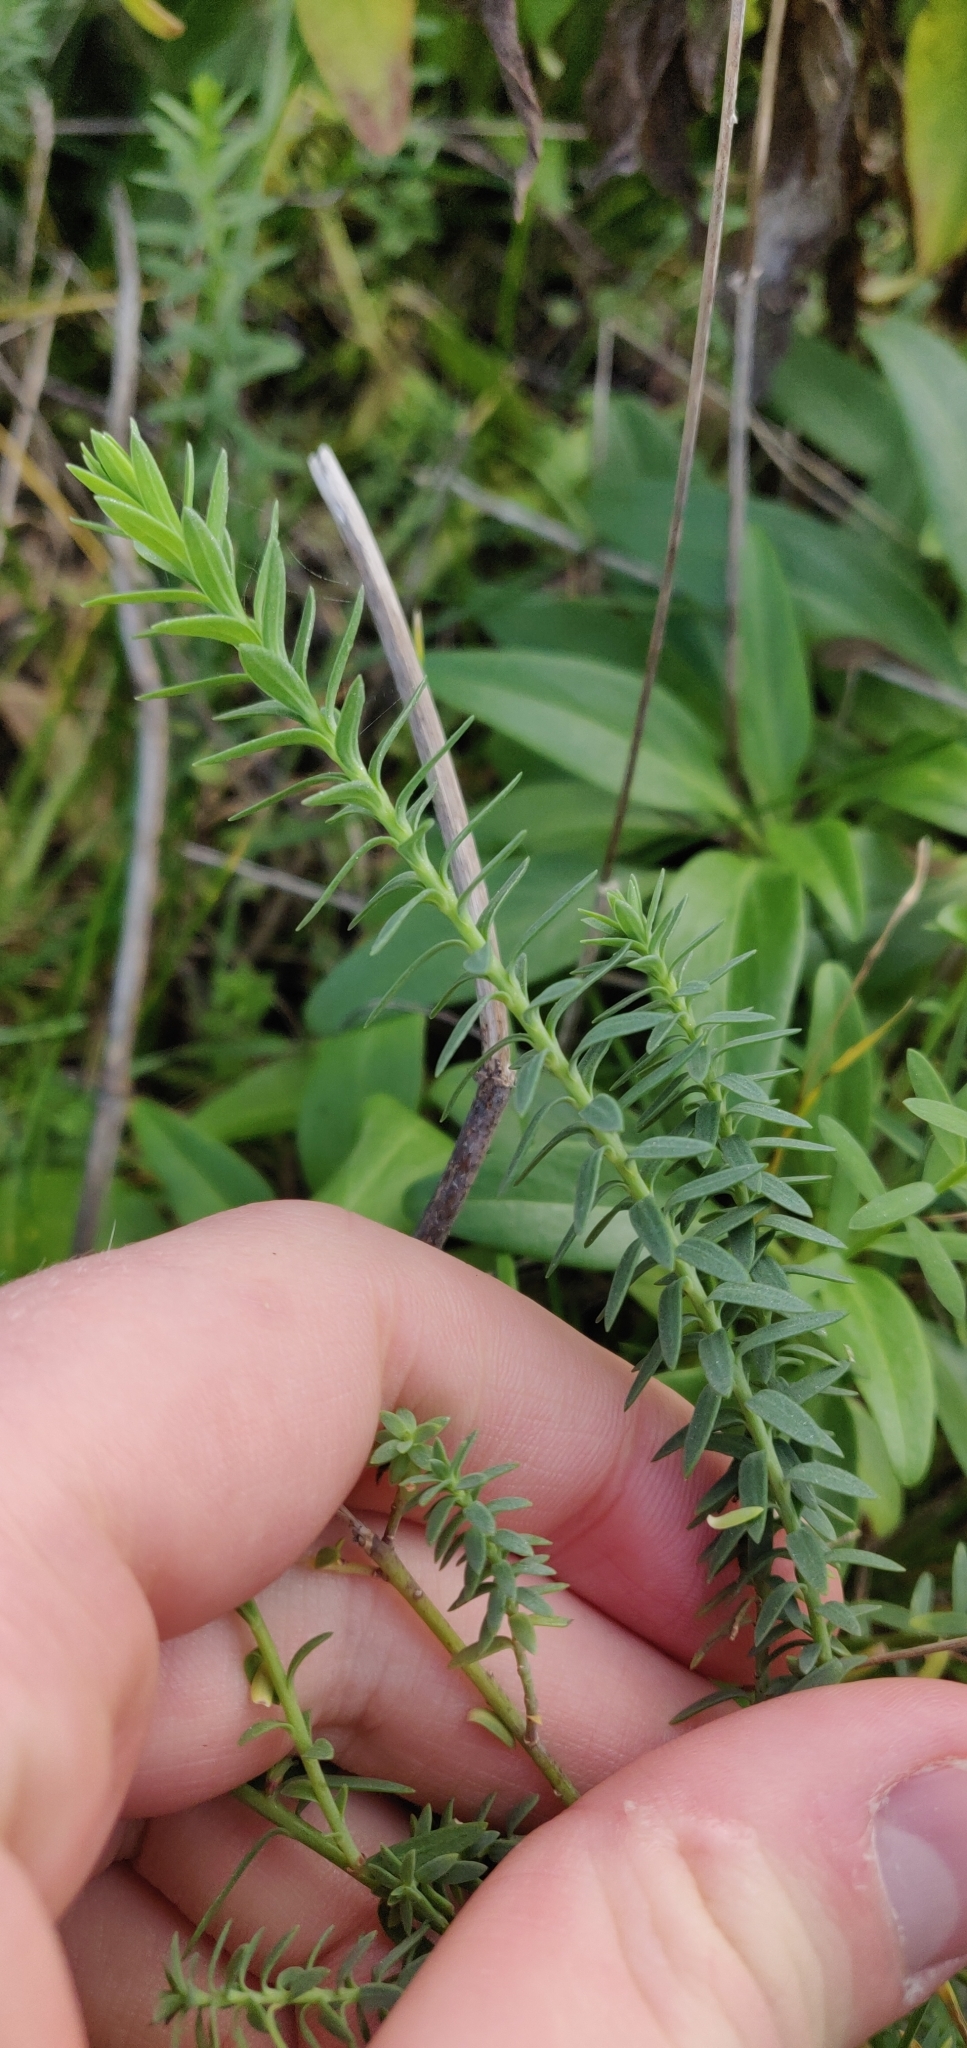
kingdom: Plantae
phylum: Tracheophyta
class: Magnoliopsida
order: Malpighiales
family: Linaceae
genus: Linum
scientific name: Linum monogynum
